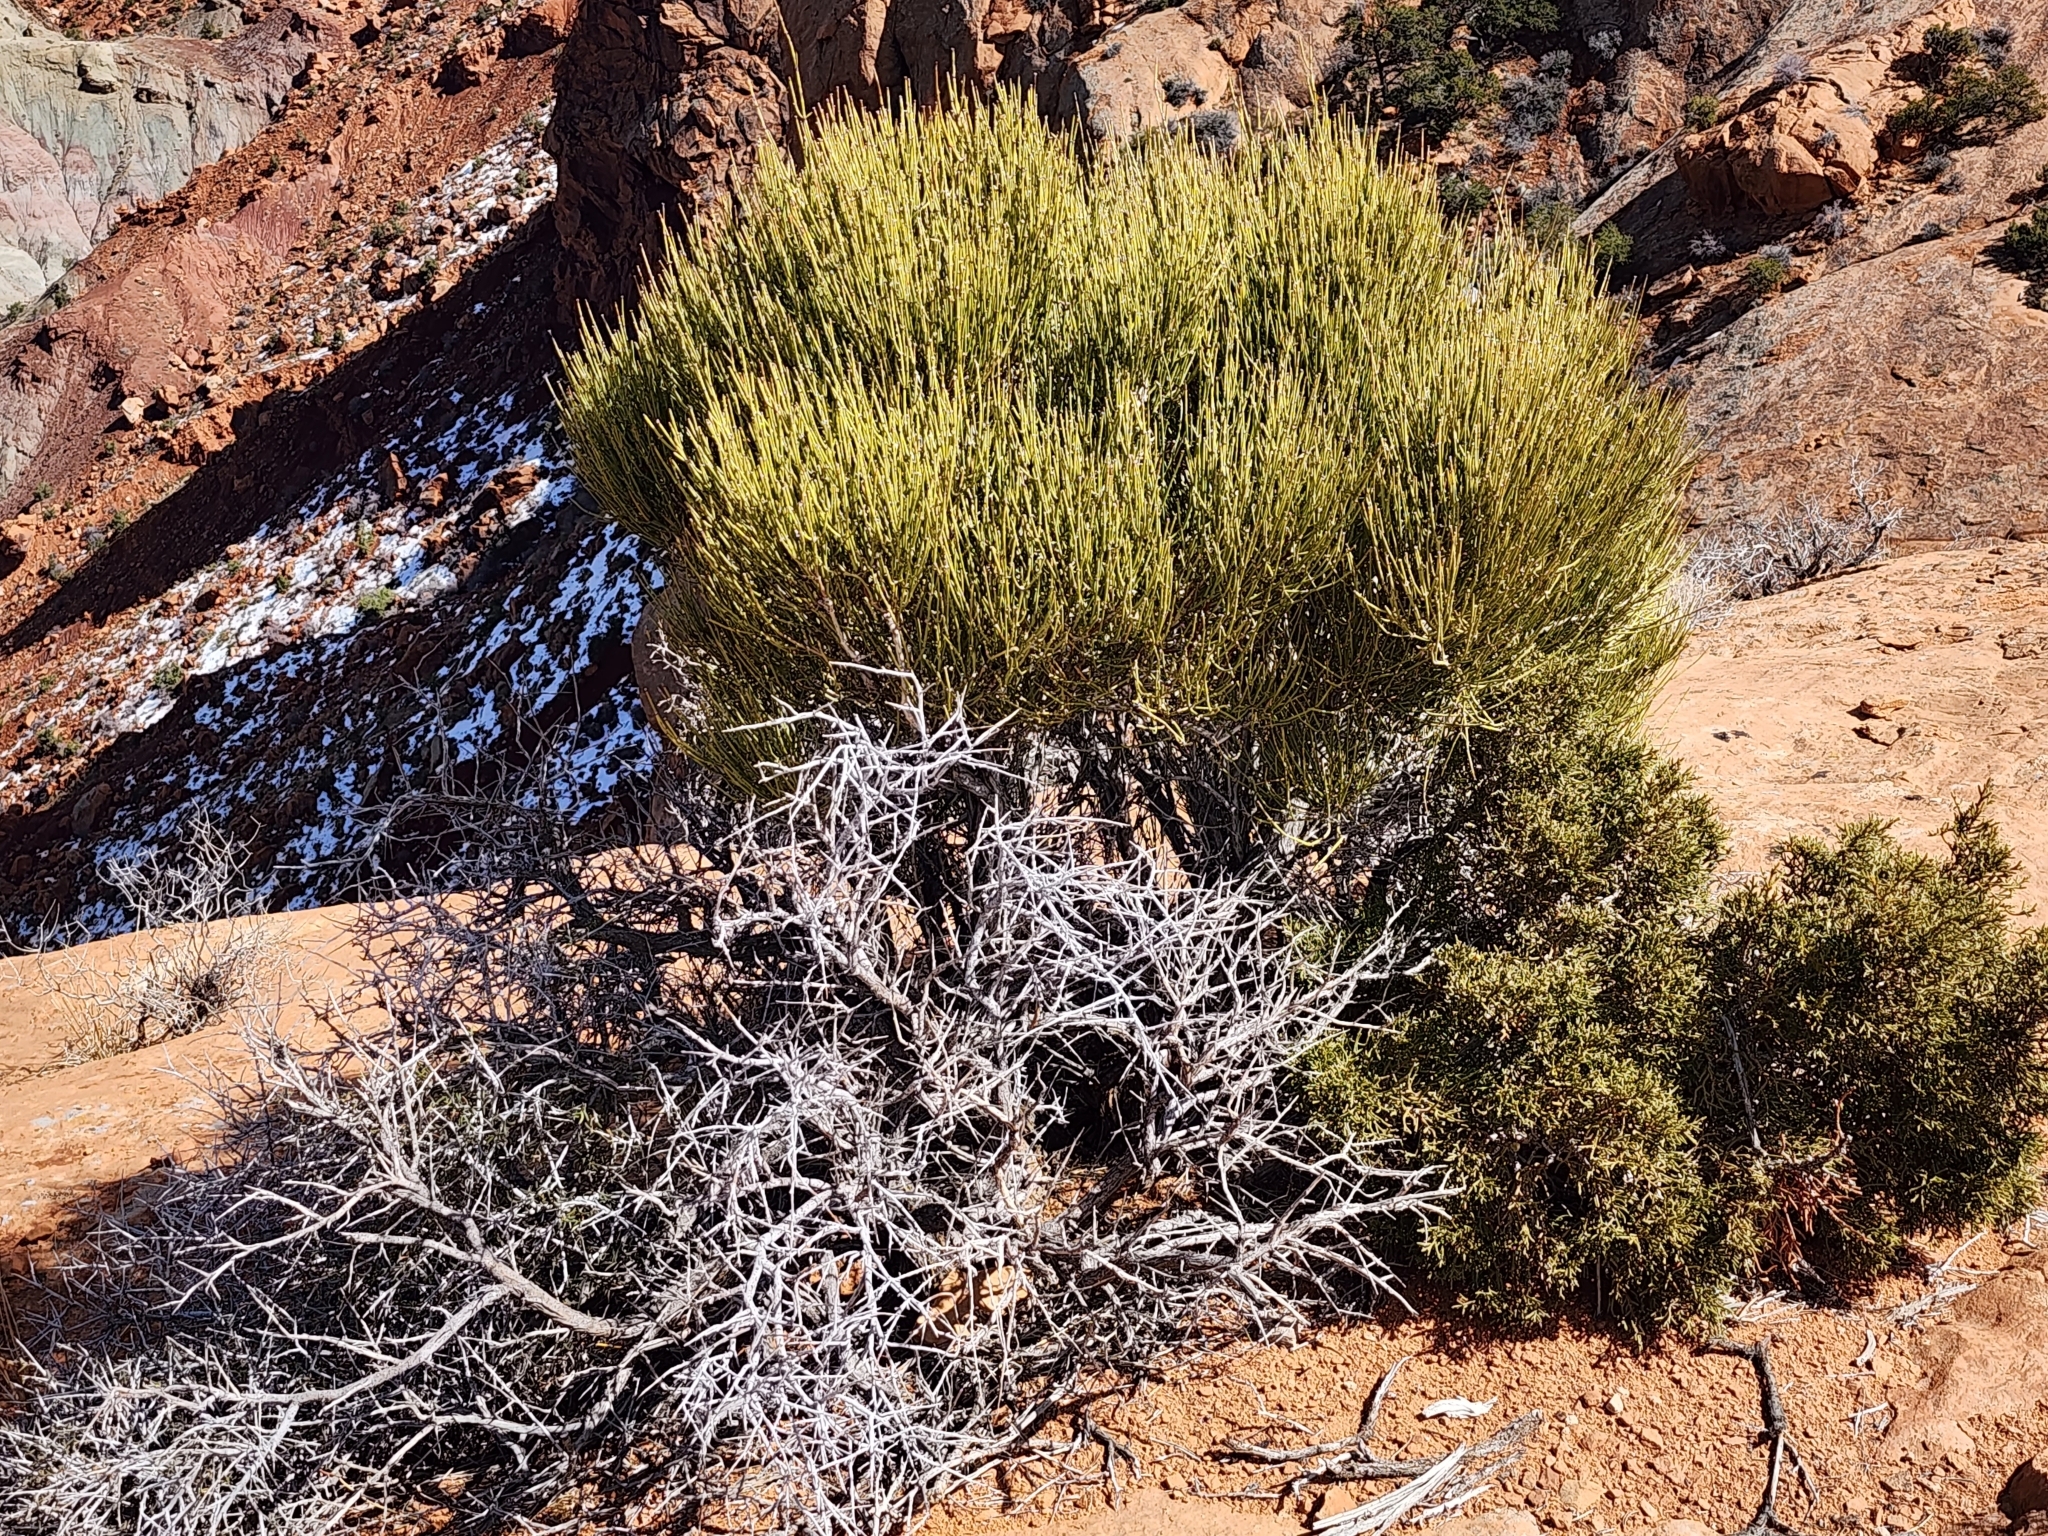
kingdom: Plantae
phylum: Tracheophyta
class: Gnetopsida
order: Ephedrales
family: Ephedraceae
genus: Ephedra
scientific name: Ephedra viridis
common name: Green ephedra
